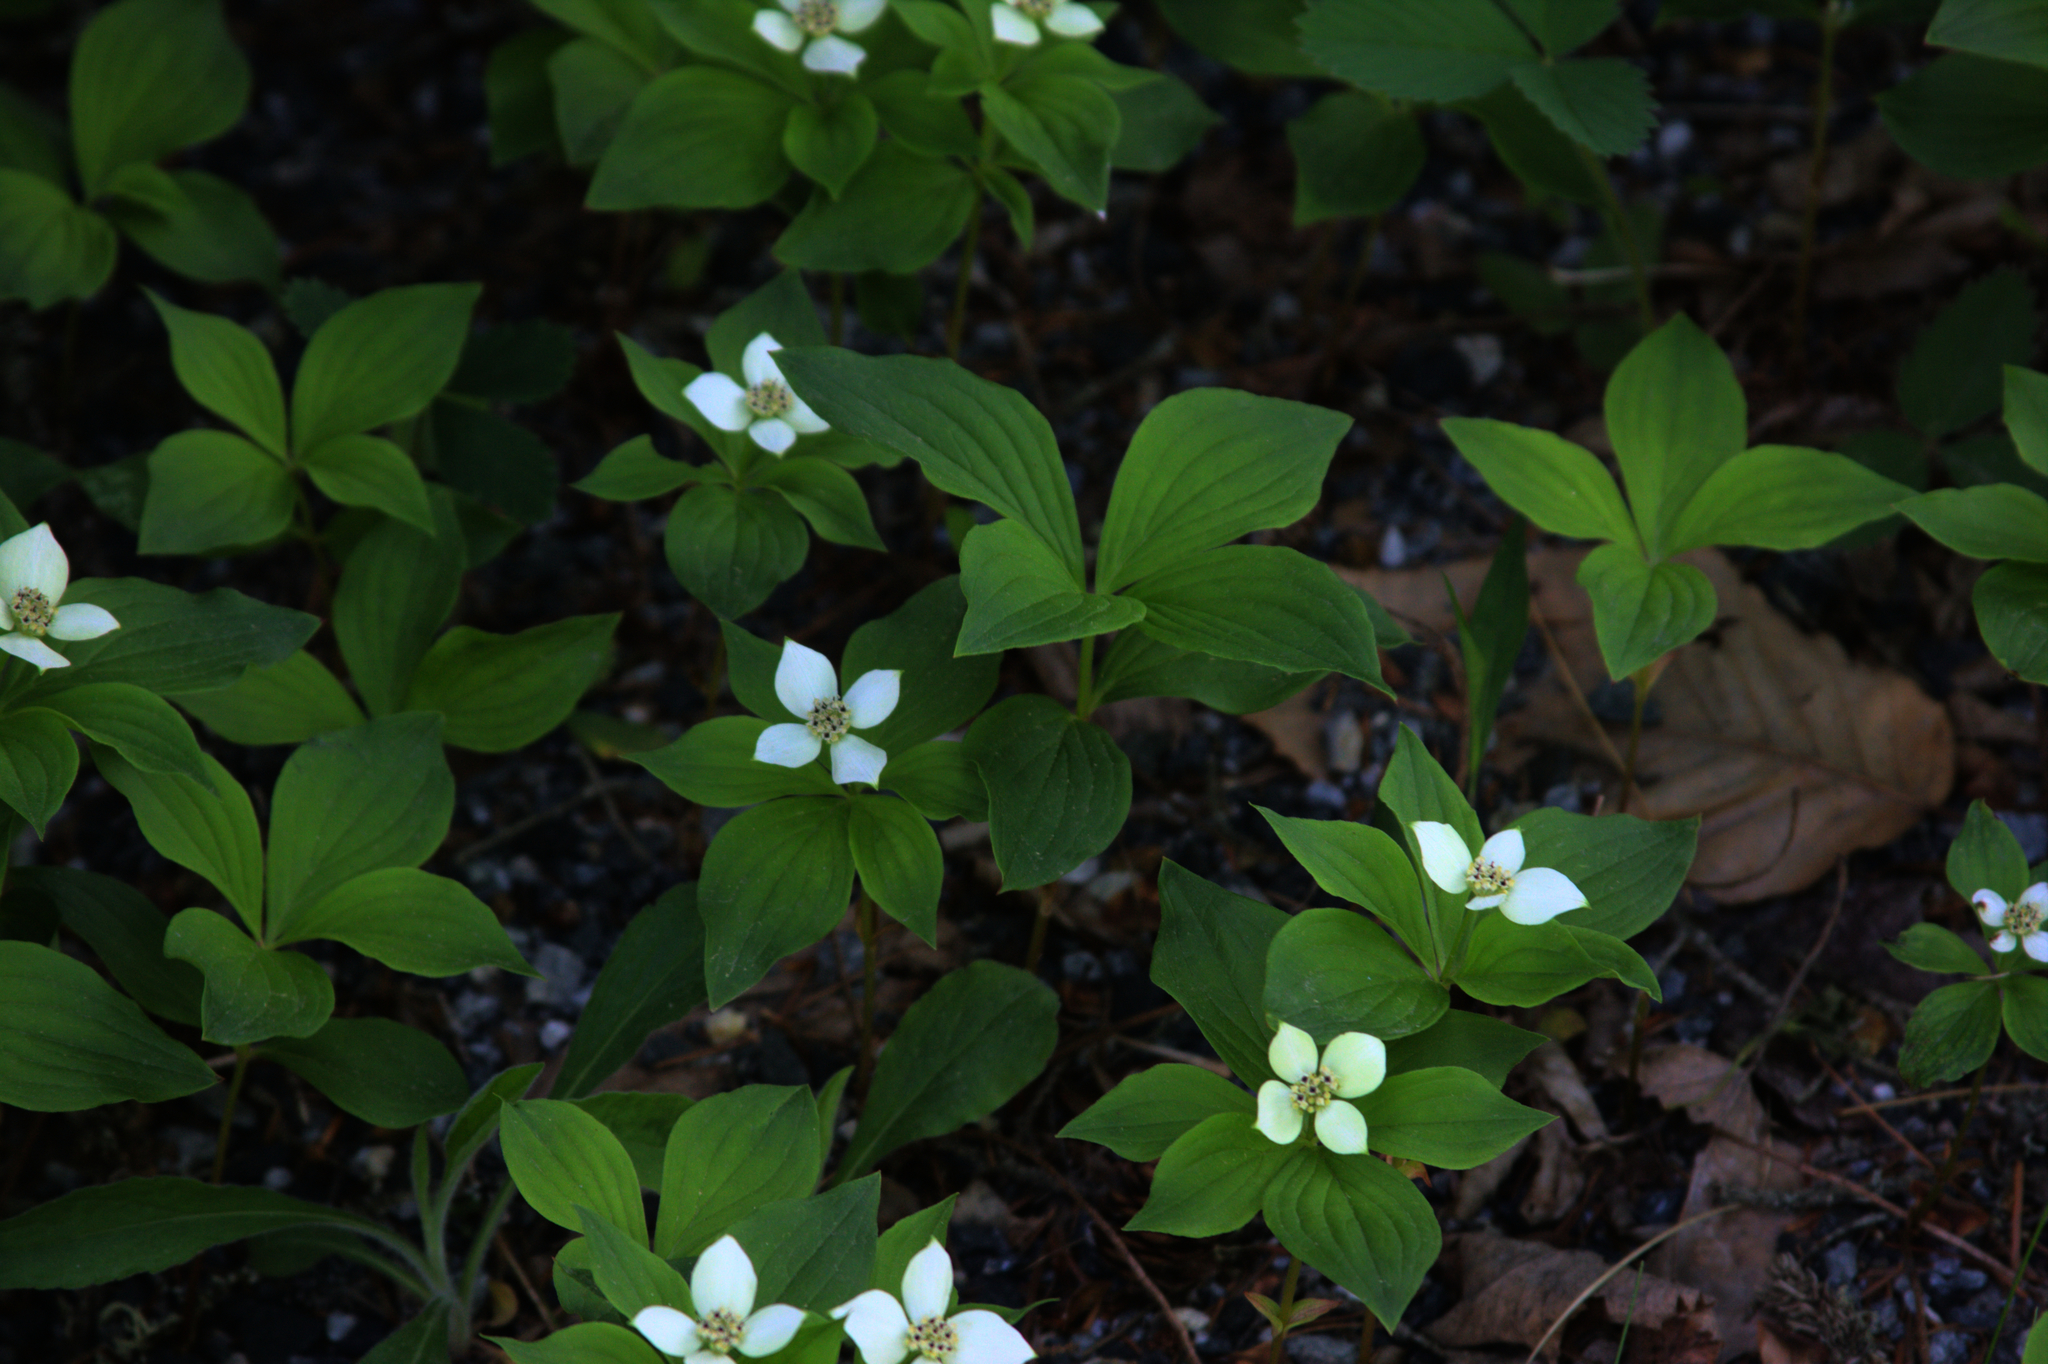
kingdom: Plantae
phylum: Tracheophyta
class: Magnoliopsida
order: Cornales
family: Cornaceae
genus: Cornus
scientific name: Cornus canadensis
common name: Creeping dogwood
